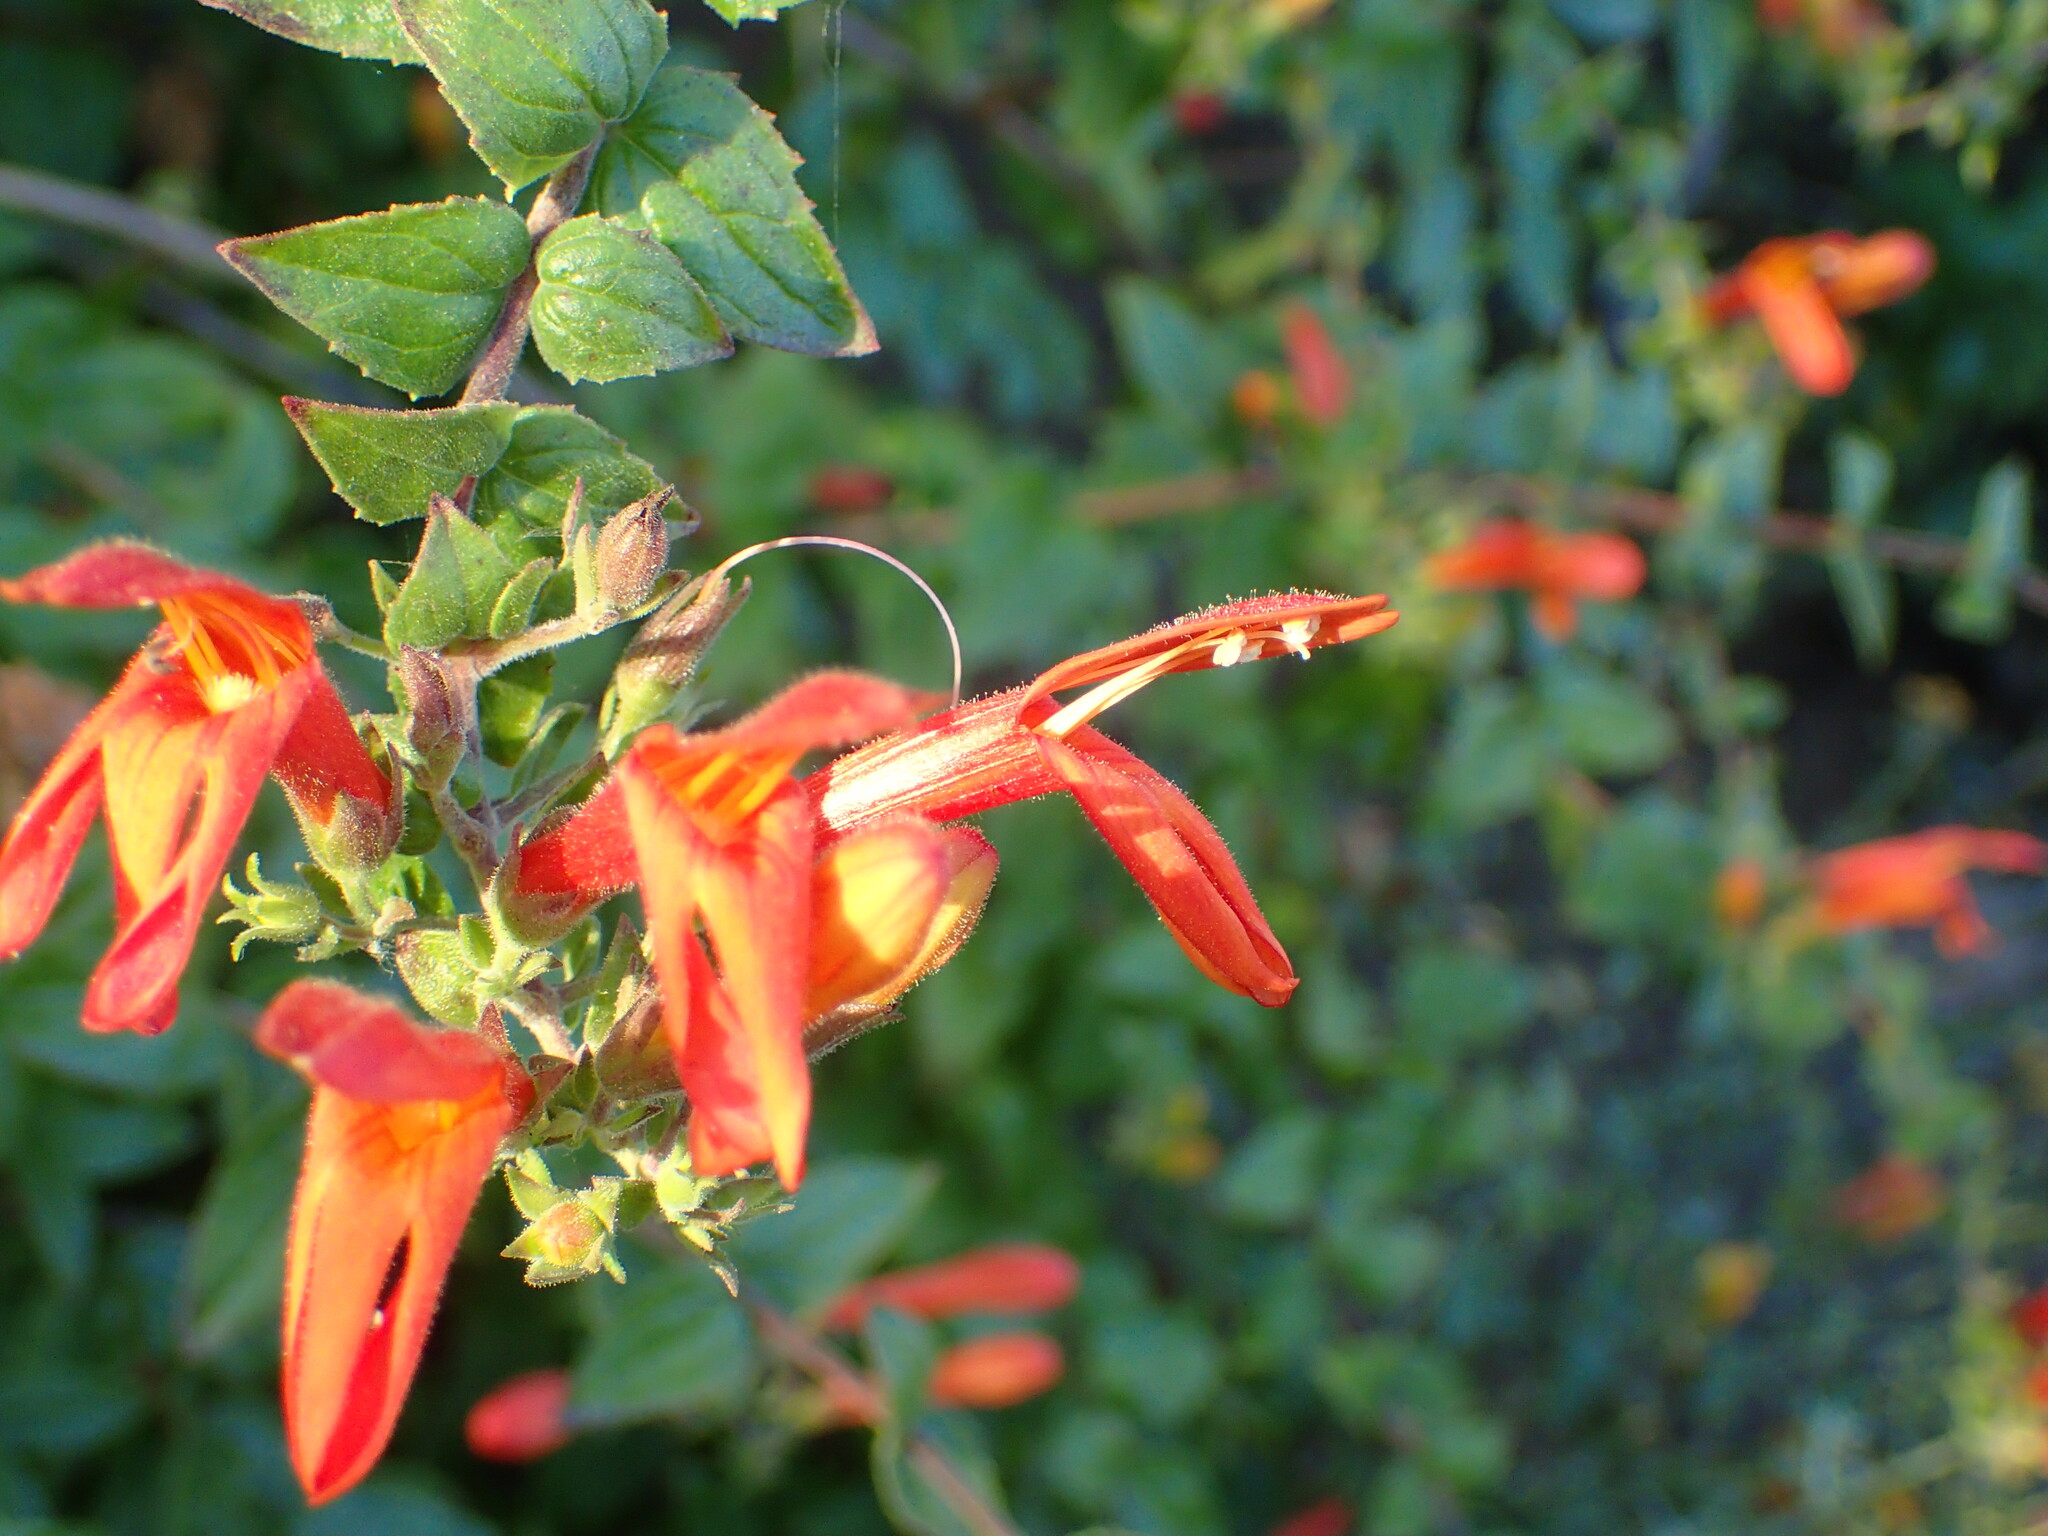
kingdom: Plantae
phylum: Tracheophyta
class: Magnoliopsida
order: Lamiales
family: Plantaginaceae
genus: Keckiella
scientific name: Keckiella cordifolia
